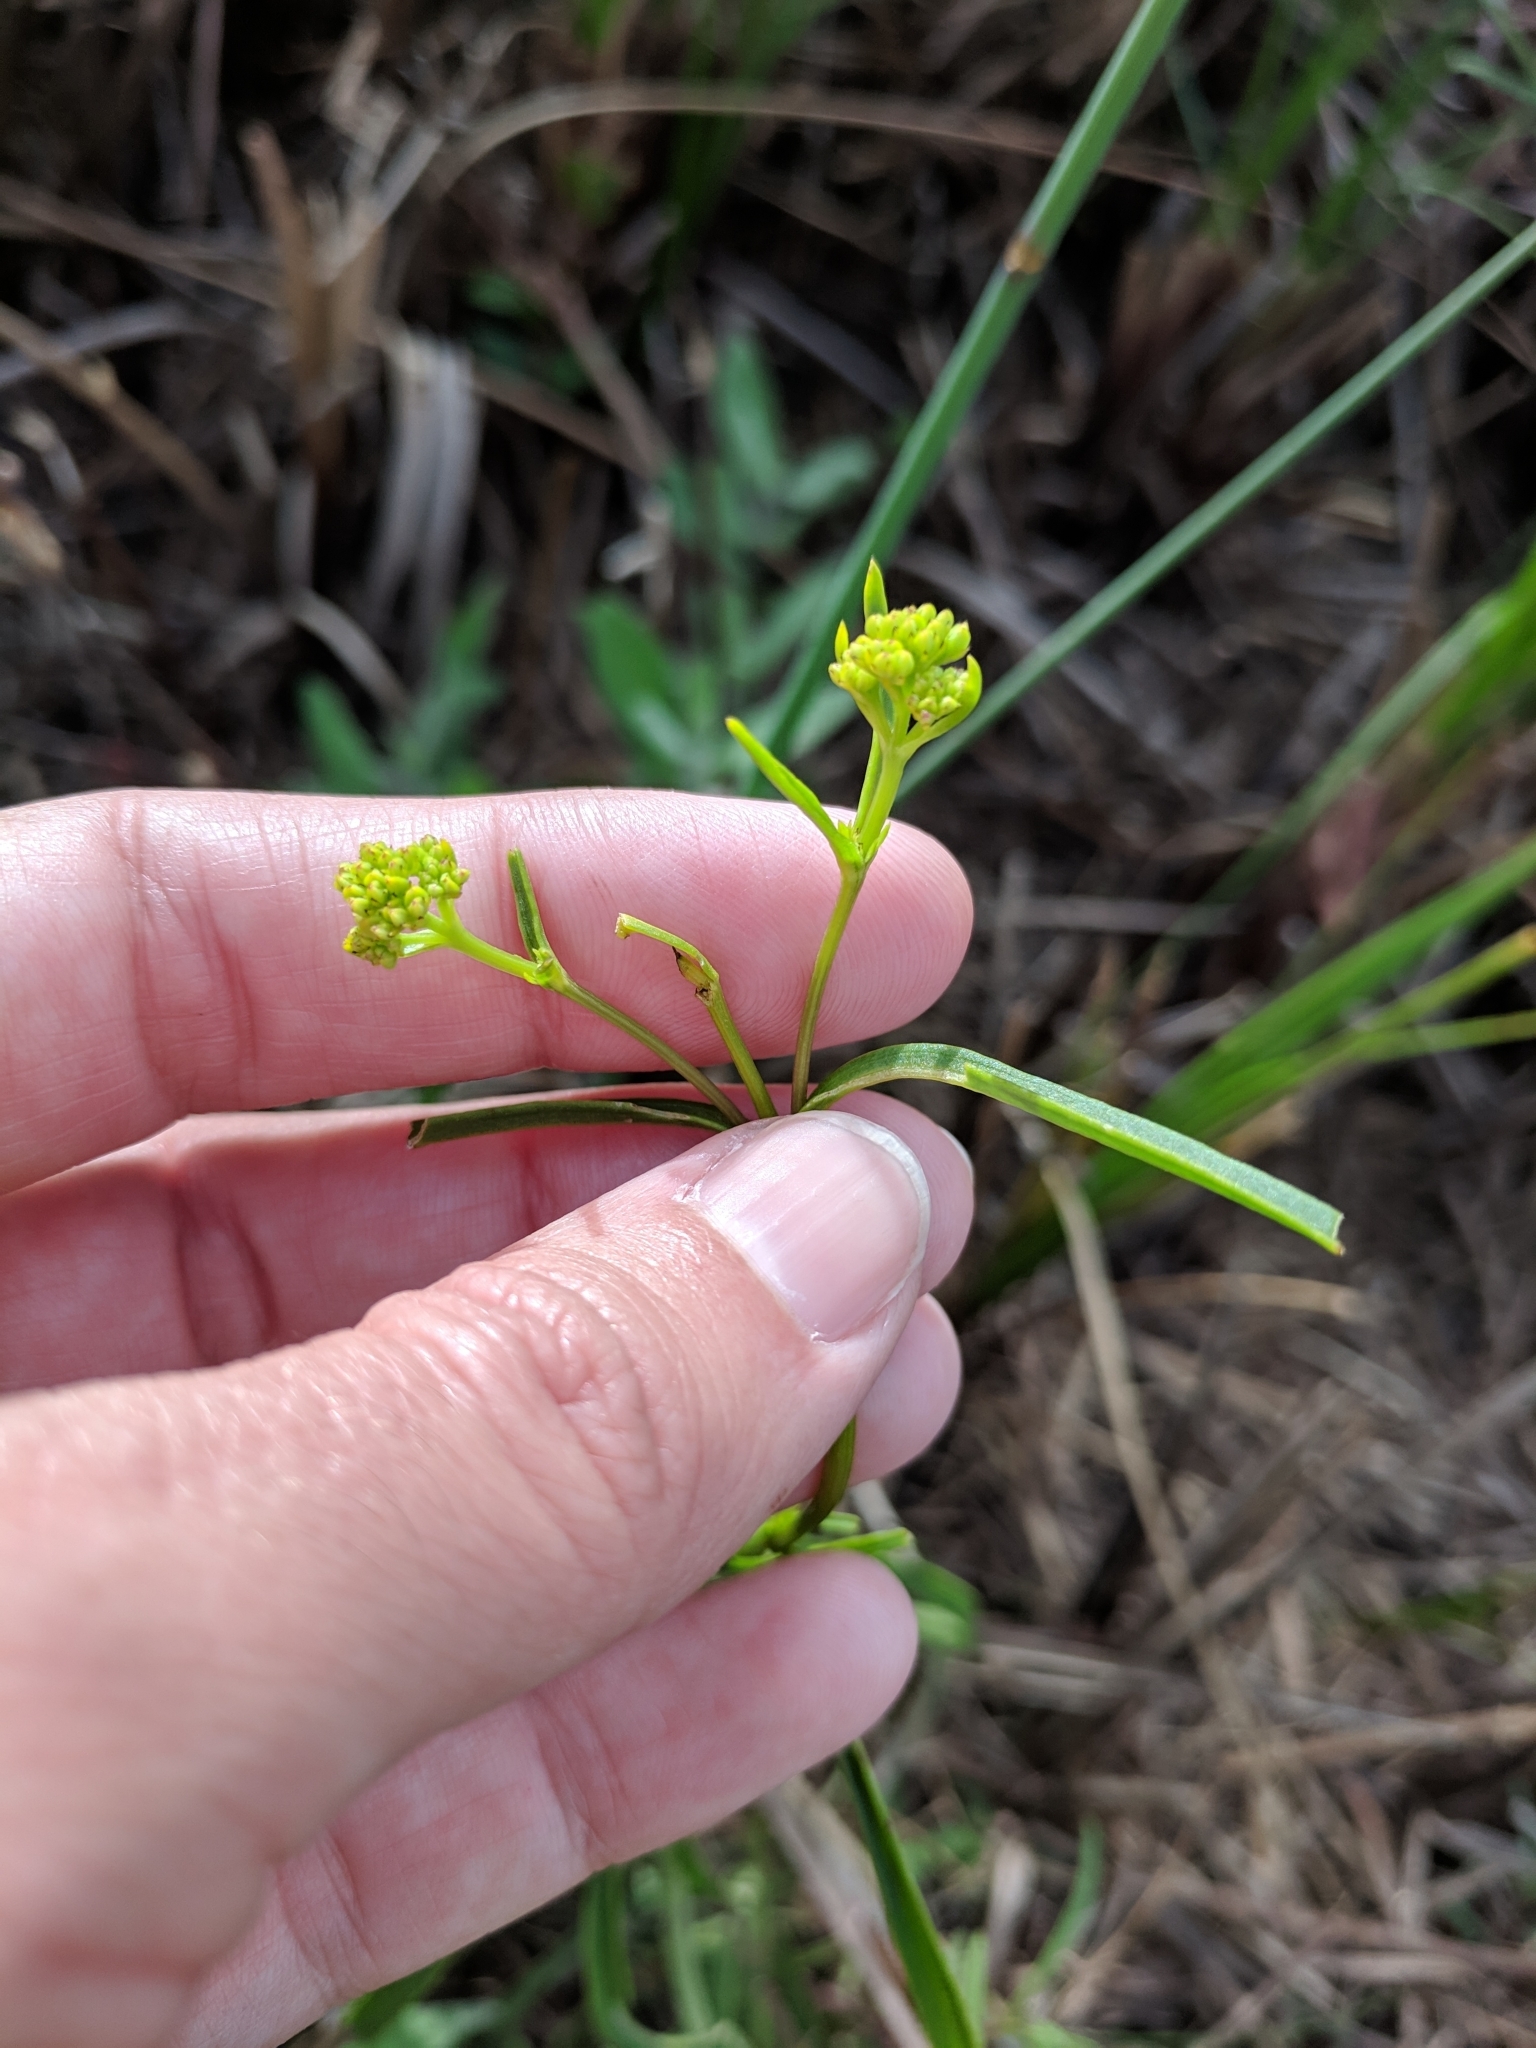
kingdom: Plantae
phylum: Tracheophyta
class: Magnoliopsida
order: Asterales
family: Asteraceae
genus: Flaveria
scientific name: Flaveria linearis
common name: Yellowtop
